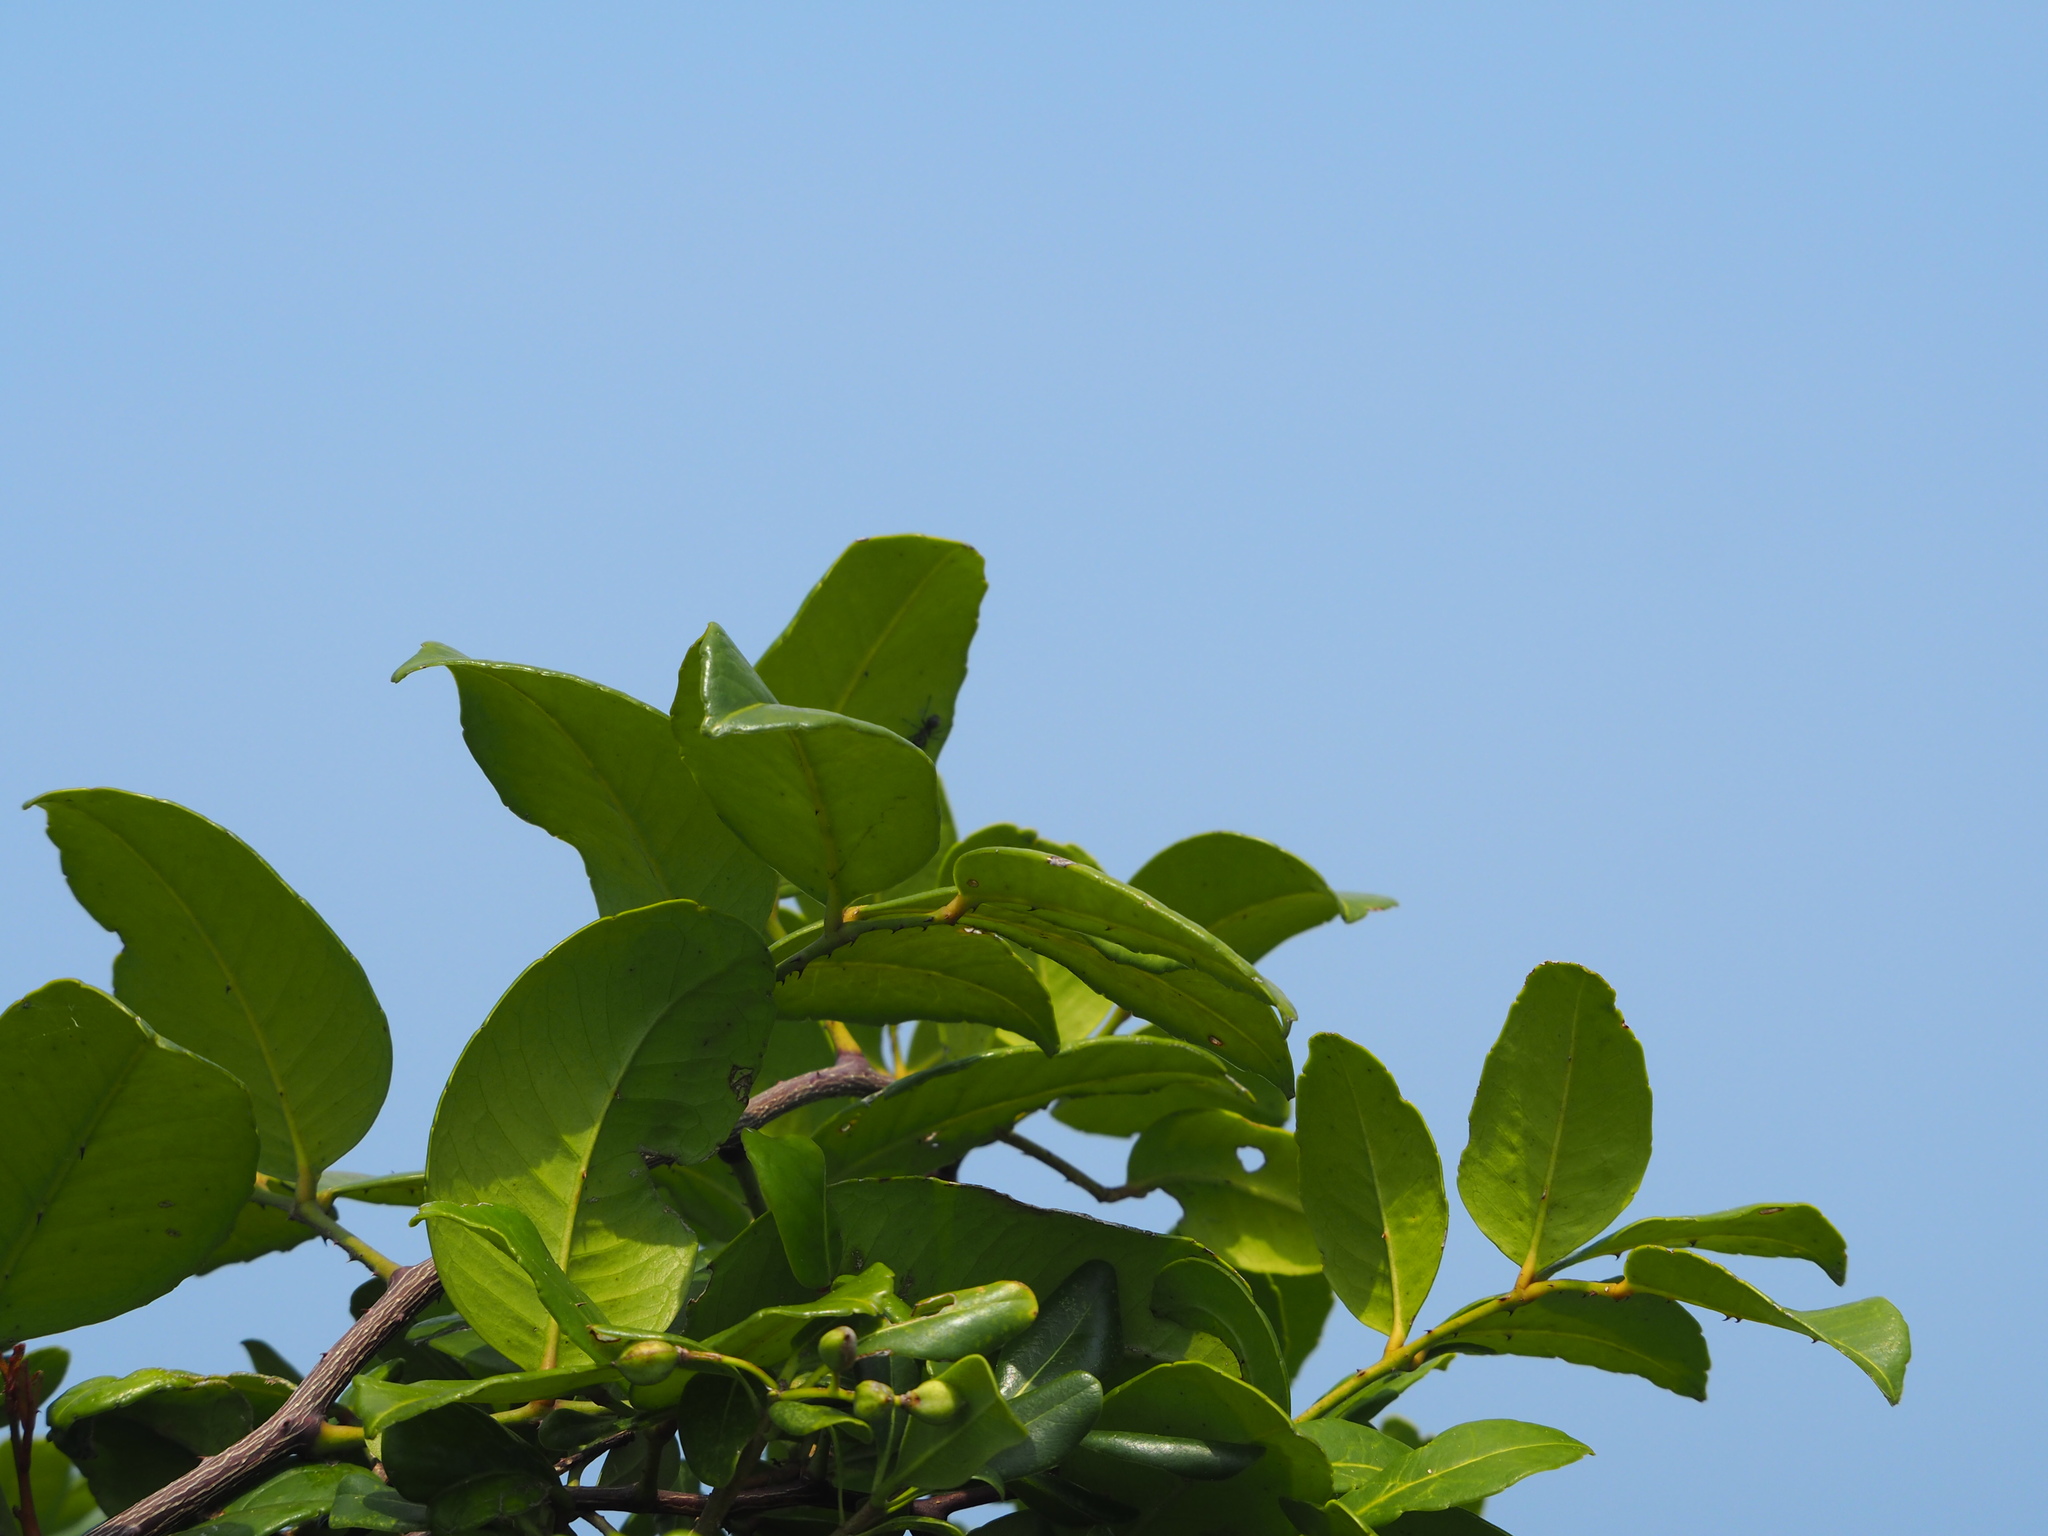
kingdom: Plantae
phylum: Tracheophyta
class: Magnoliopsida
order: Sapindales
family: Rutaceae
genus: Zanthoxylum
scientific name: Zanthoxylum nitidum
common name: Shiny-leaf prickly-ash
